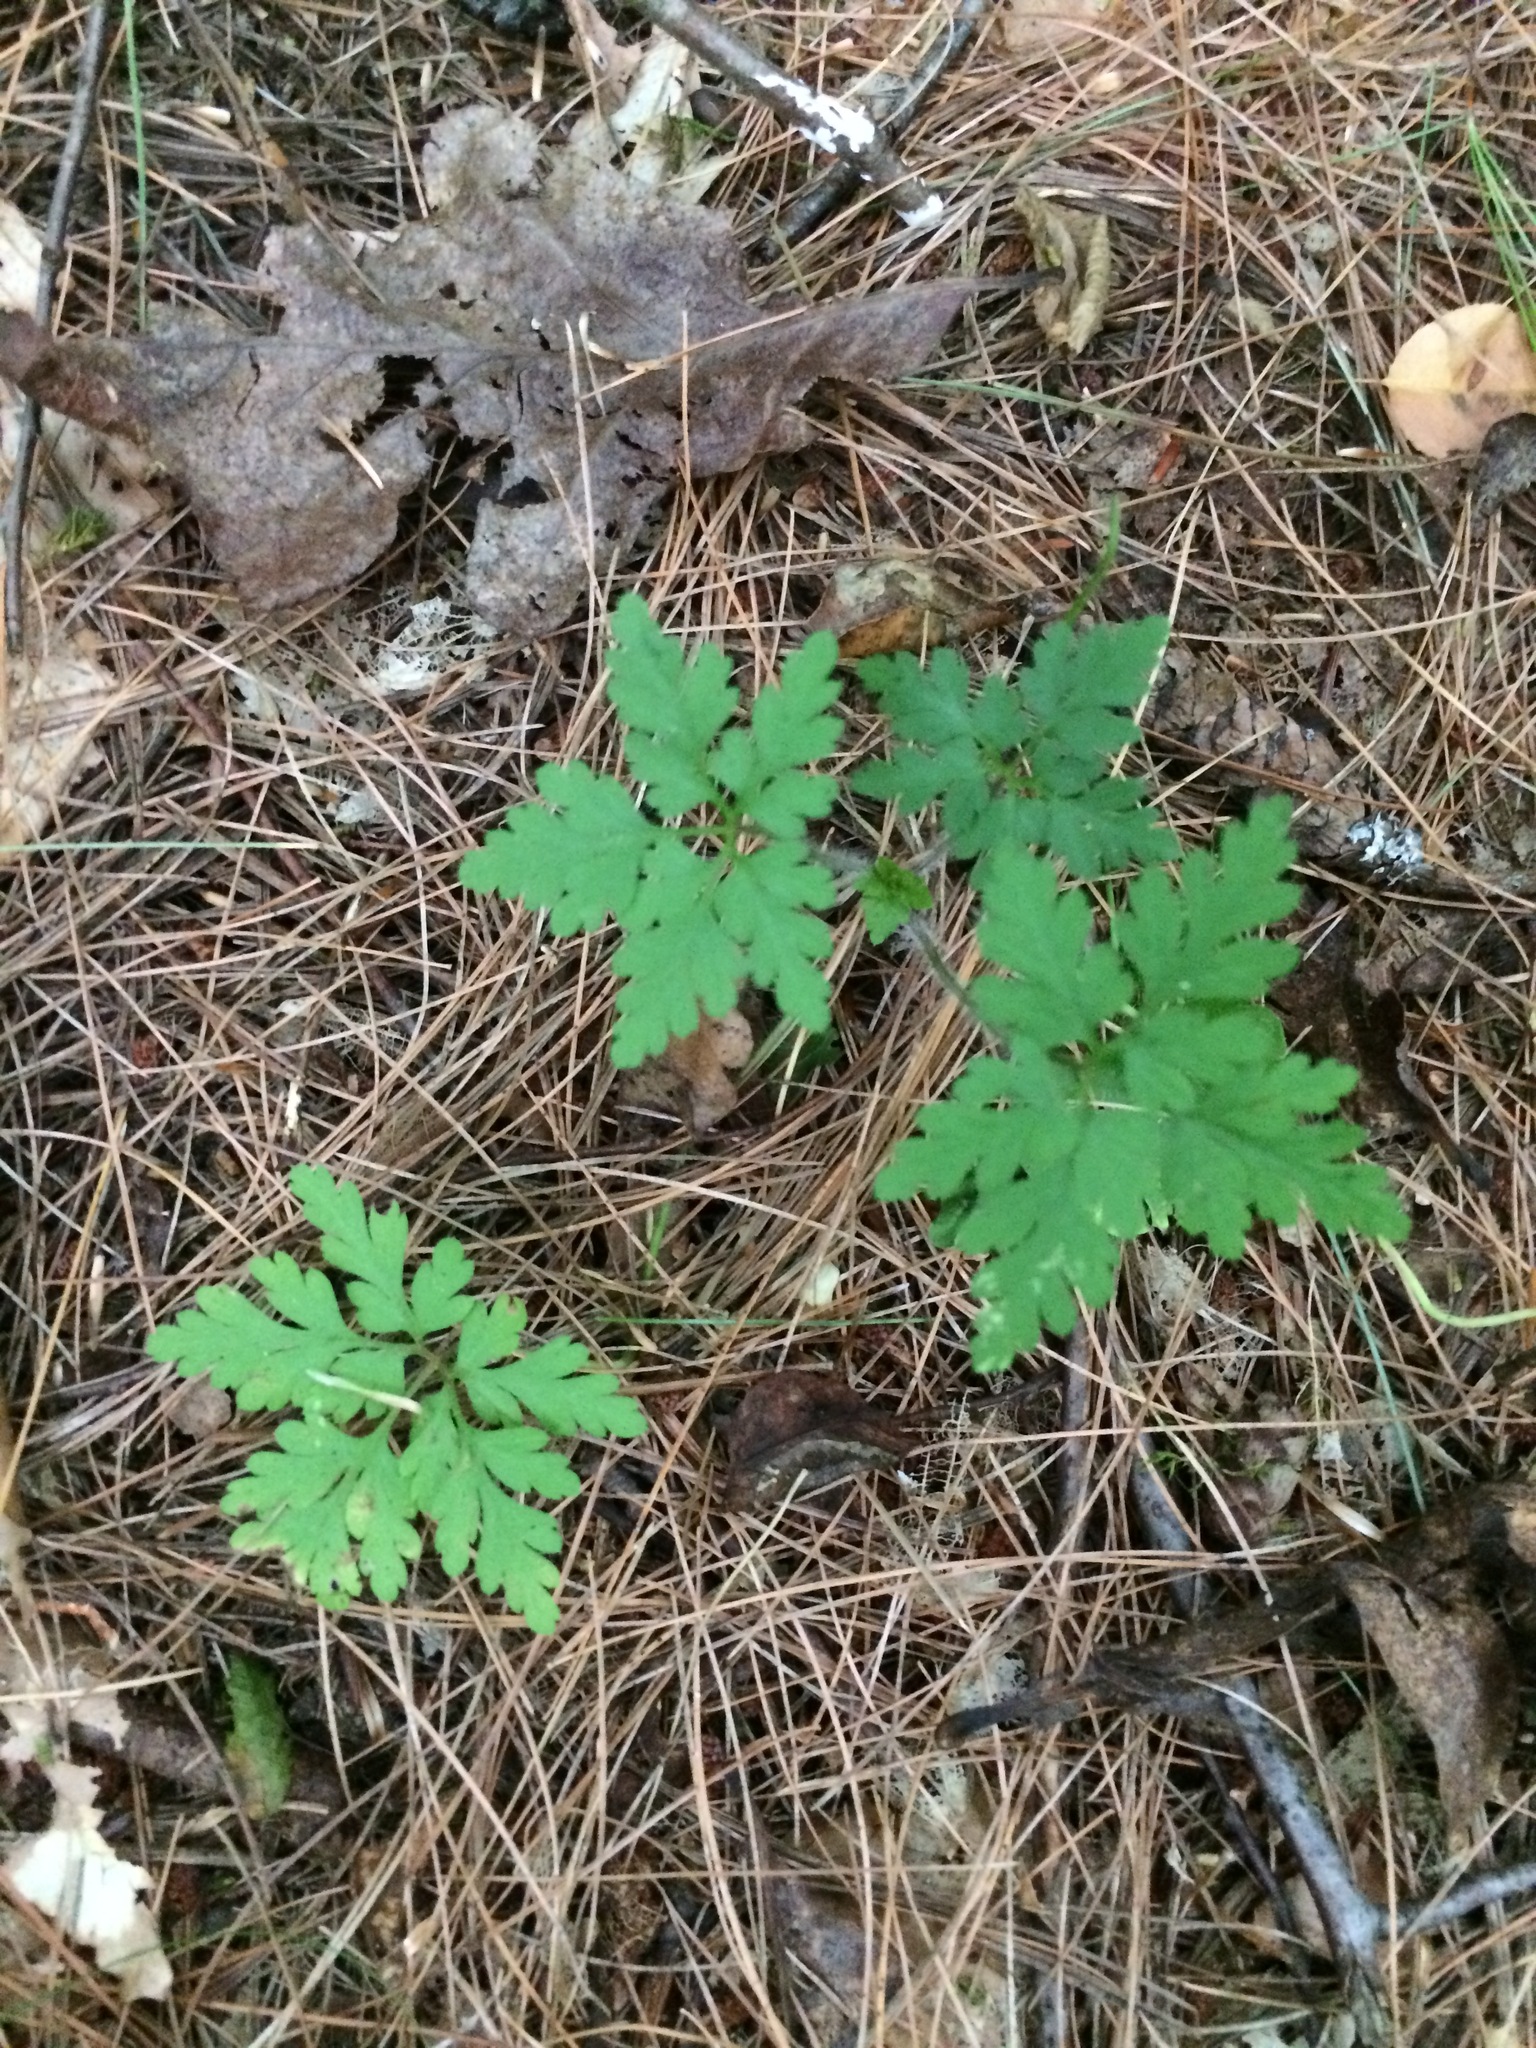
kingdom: Plantae
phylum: Tracheophyta
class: Magnoliopsida
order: Geraniales
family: Geraniaceae
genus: Geranium
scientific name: Geranium robertianum
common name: Herb-robert
